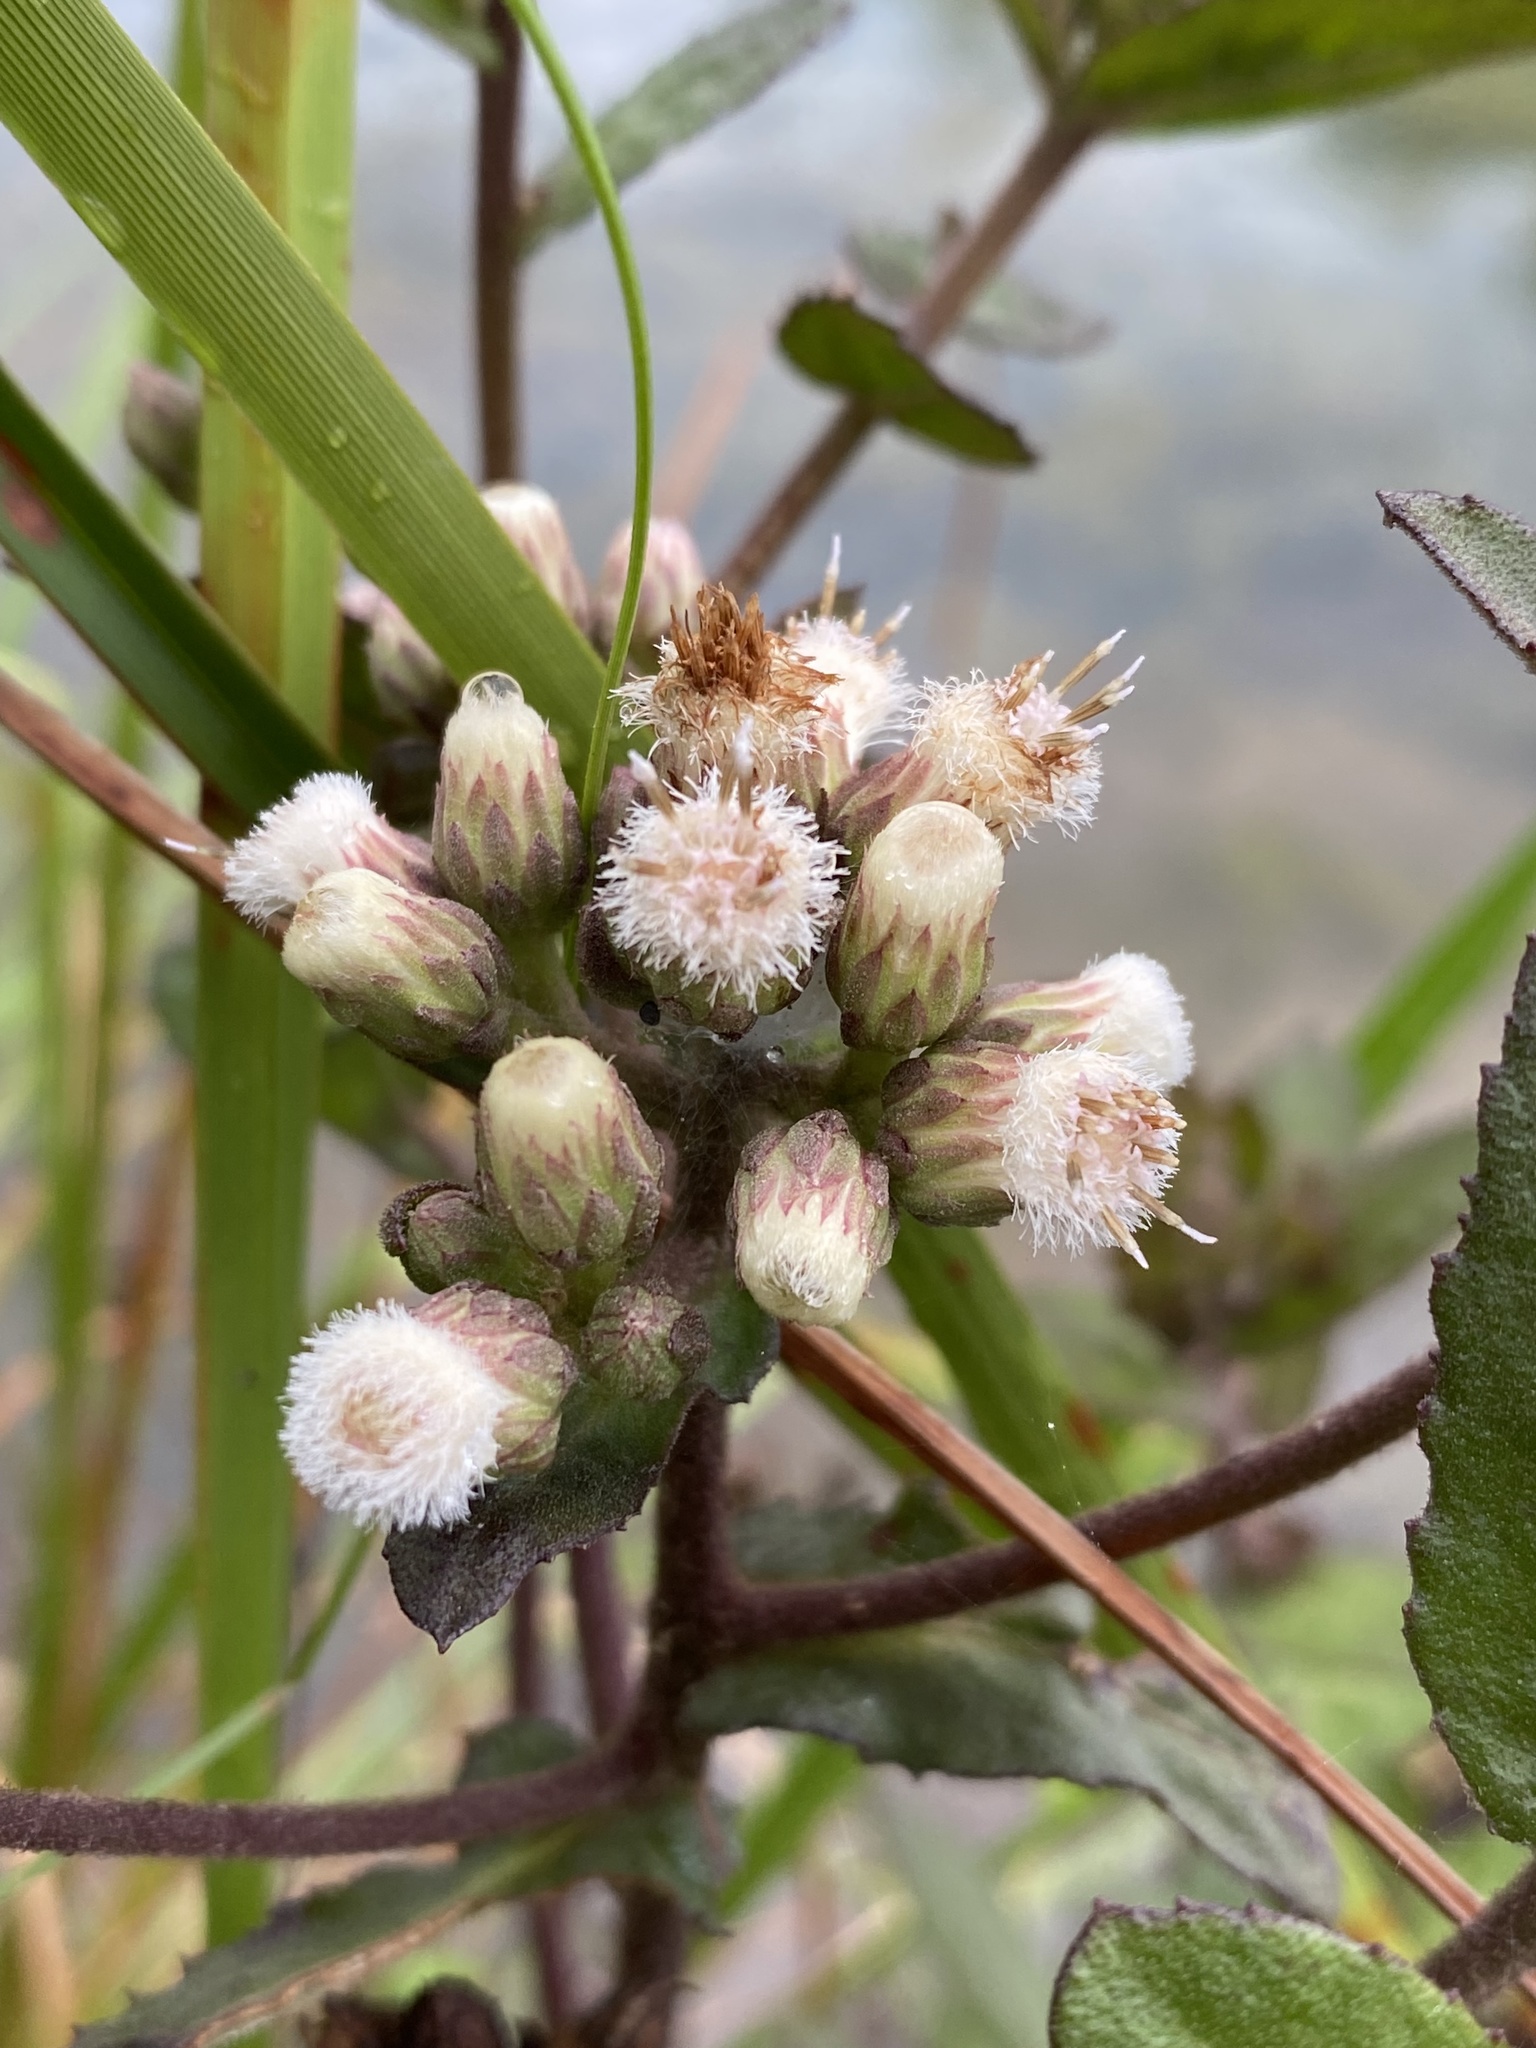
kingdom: Plantae
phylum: Tracheophyta
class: Magnoliopsida
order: Asterales
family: Asteraceae
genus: Pluchea
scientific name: Pluchea foetida
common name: Stinking camphorweed
